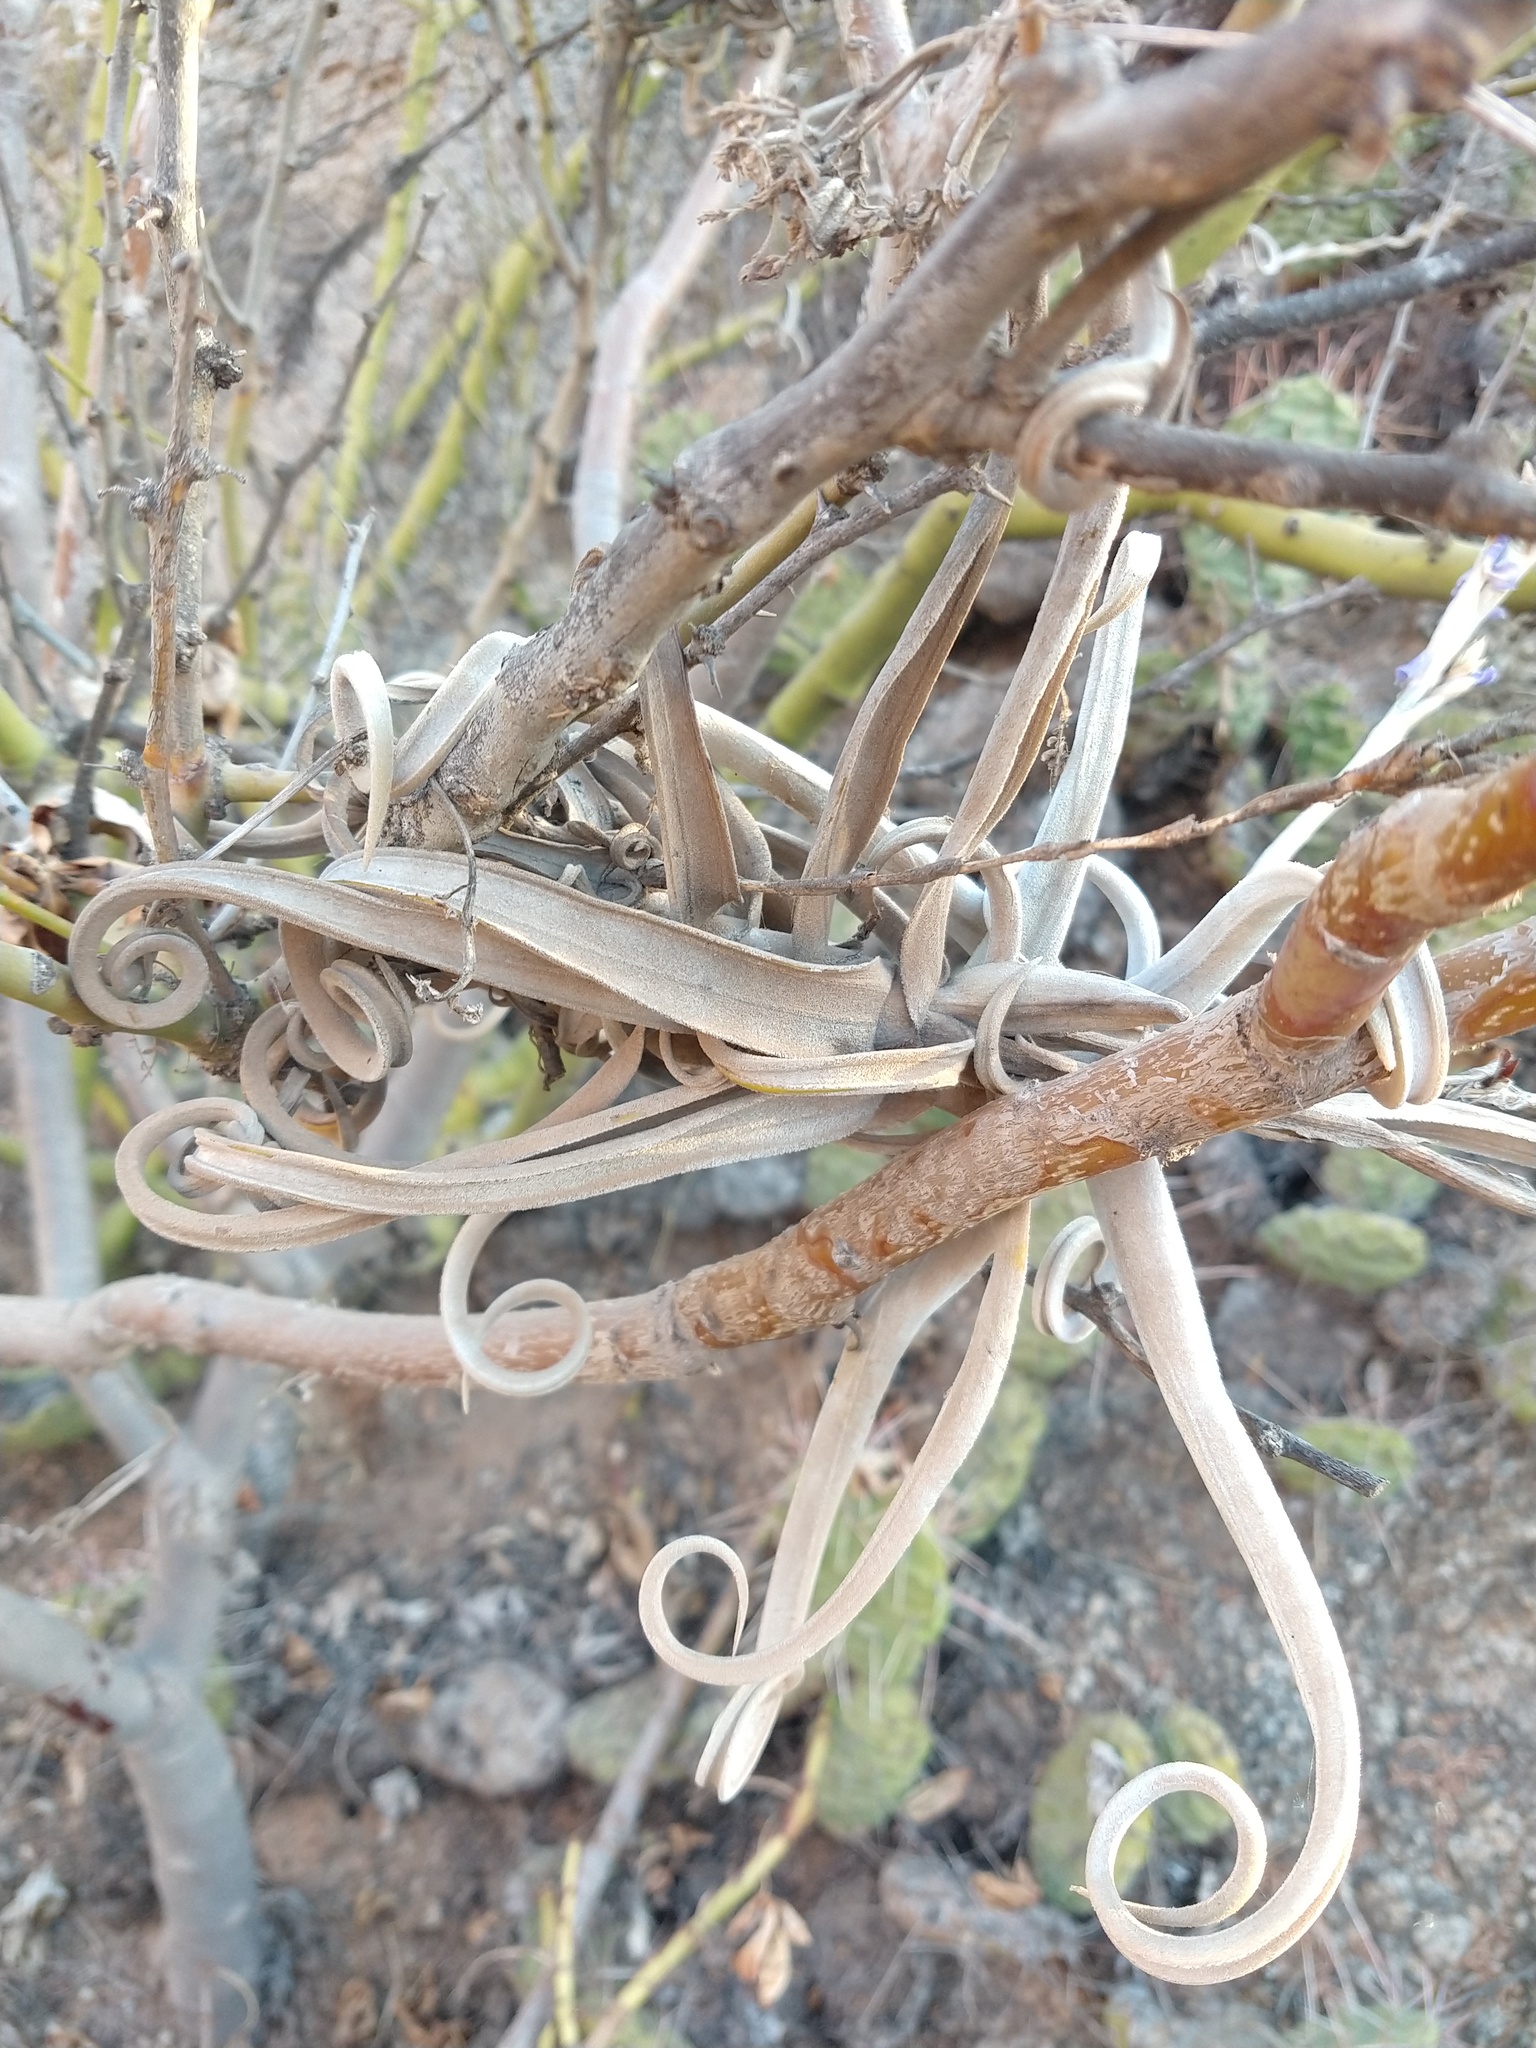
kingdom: Plantae
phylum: Tracheophyta
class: Liliopsida
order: Poales
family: Bromeliaceae
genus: Tillandsia
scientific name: Tillandsia duratii
